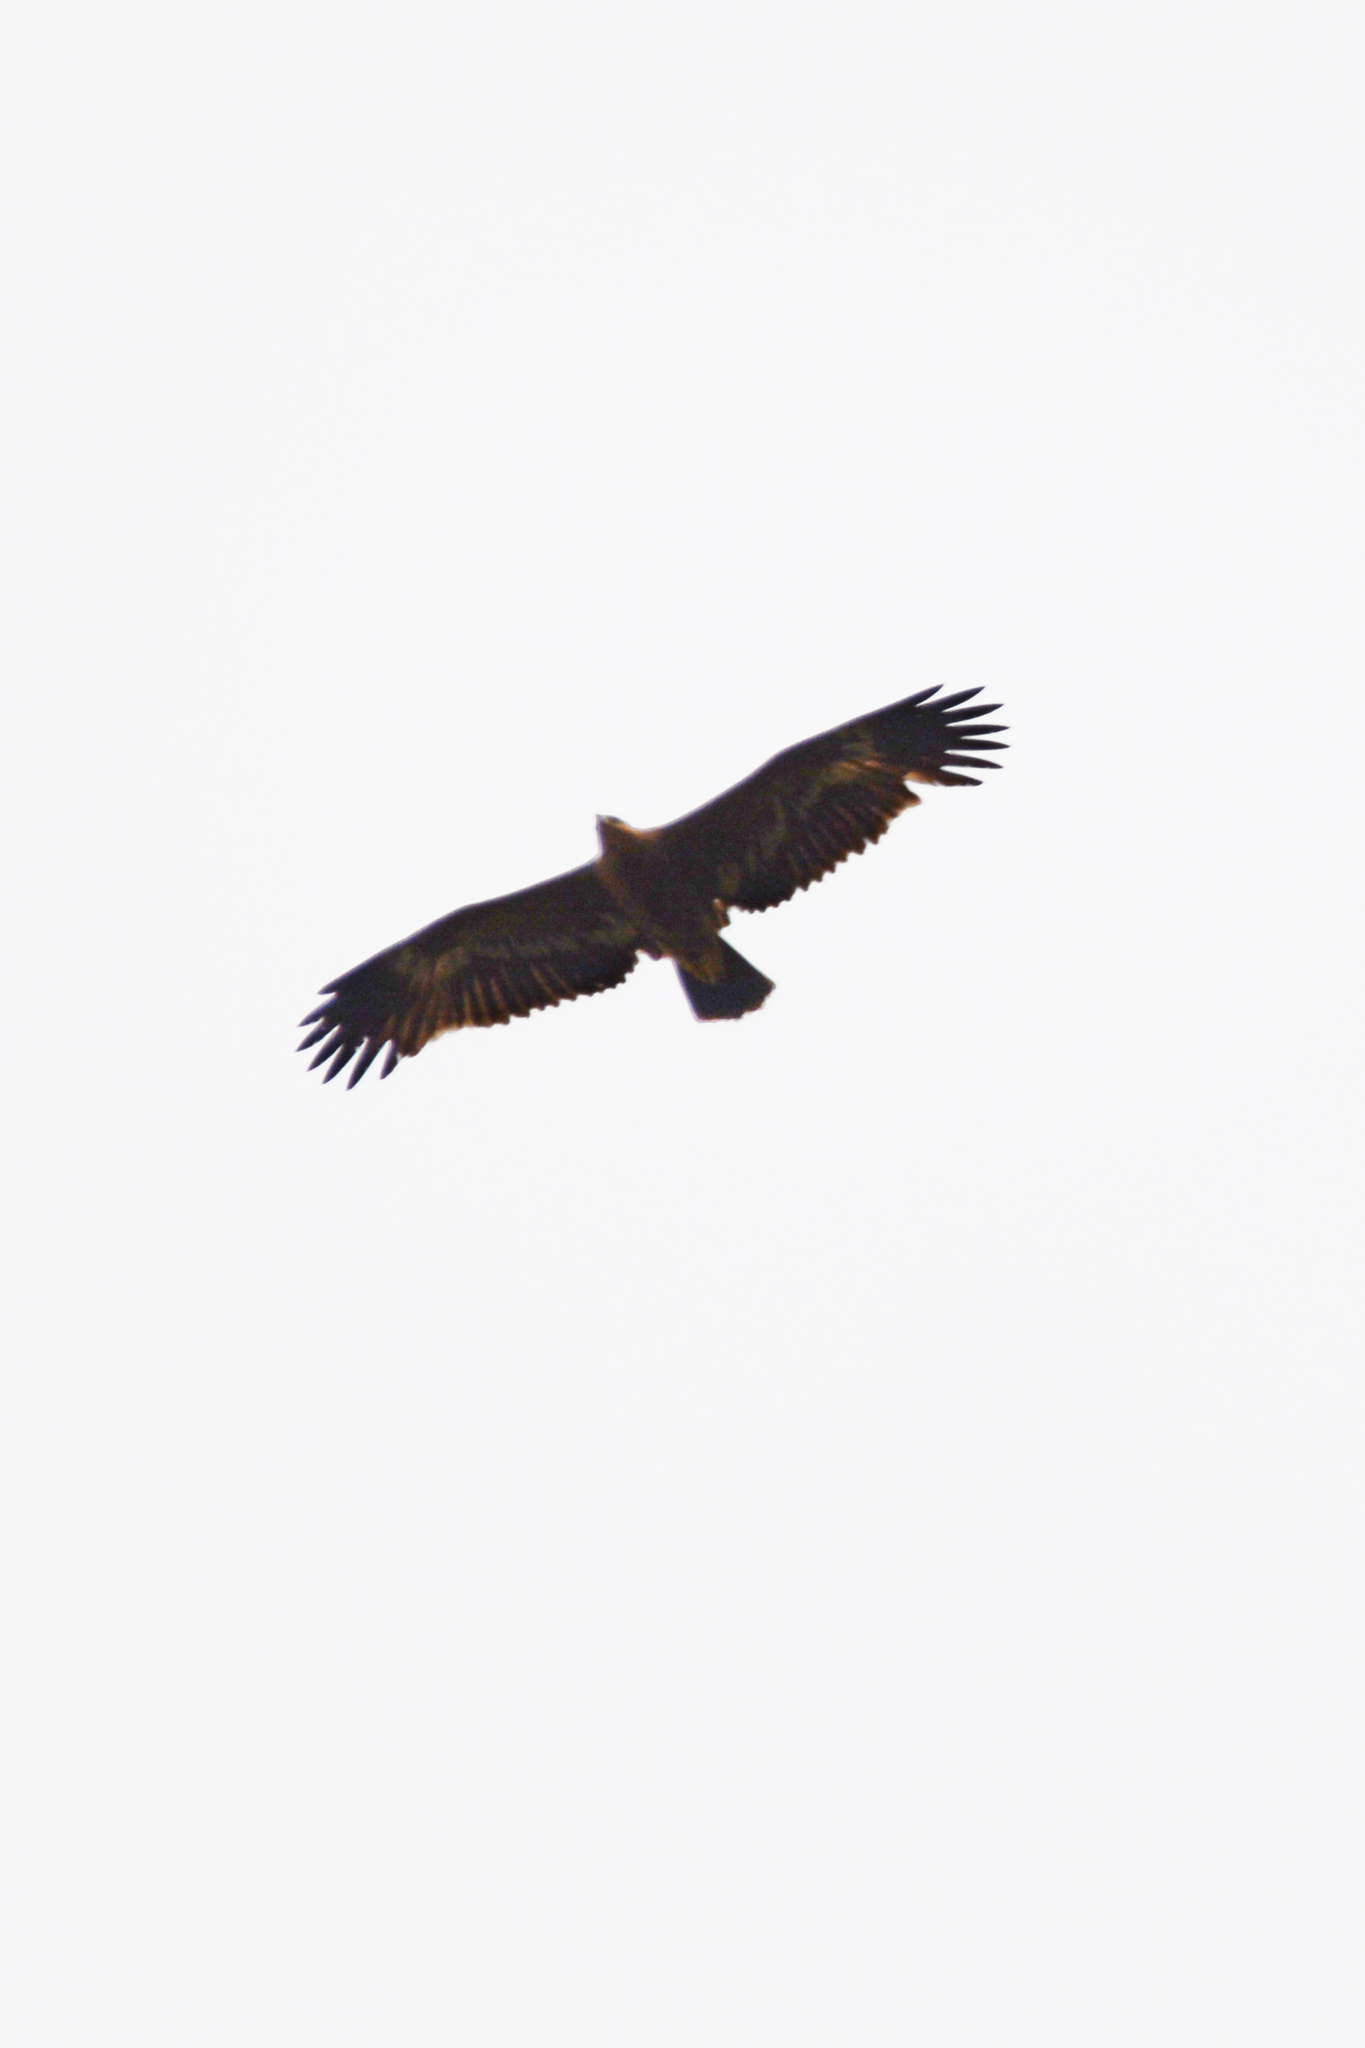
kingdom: Animalia
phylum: Chordata
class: Aves
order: Accipitriformes
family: Accipitridae
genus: Aquila
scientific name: Aquila nipalensis
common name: Steppe eagle
